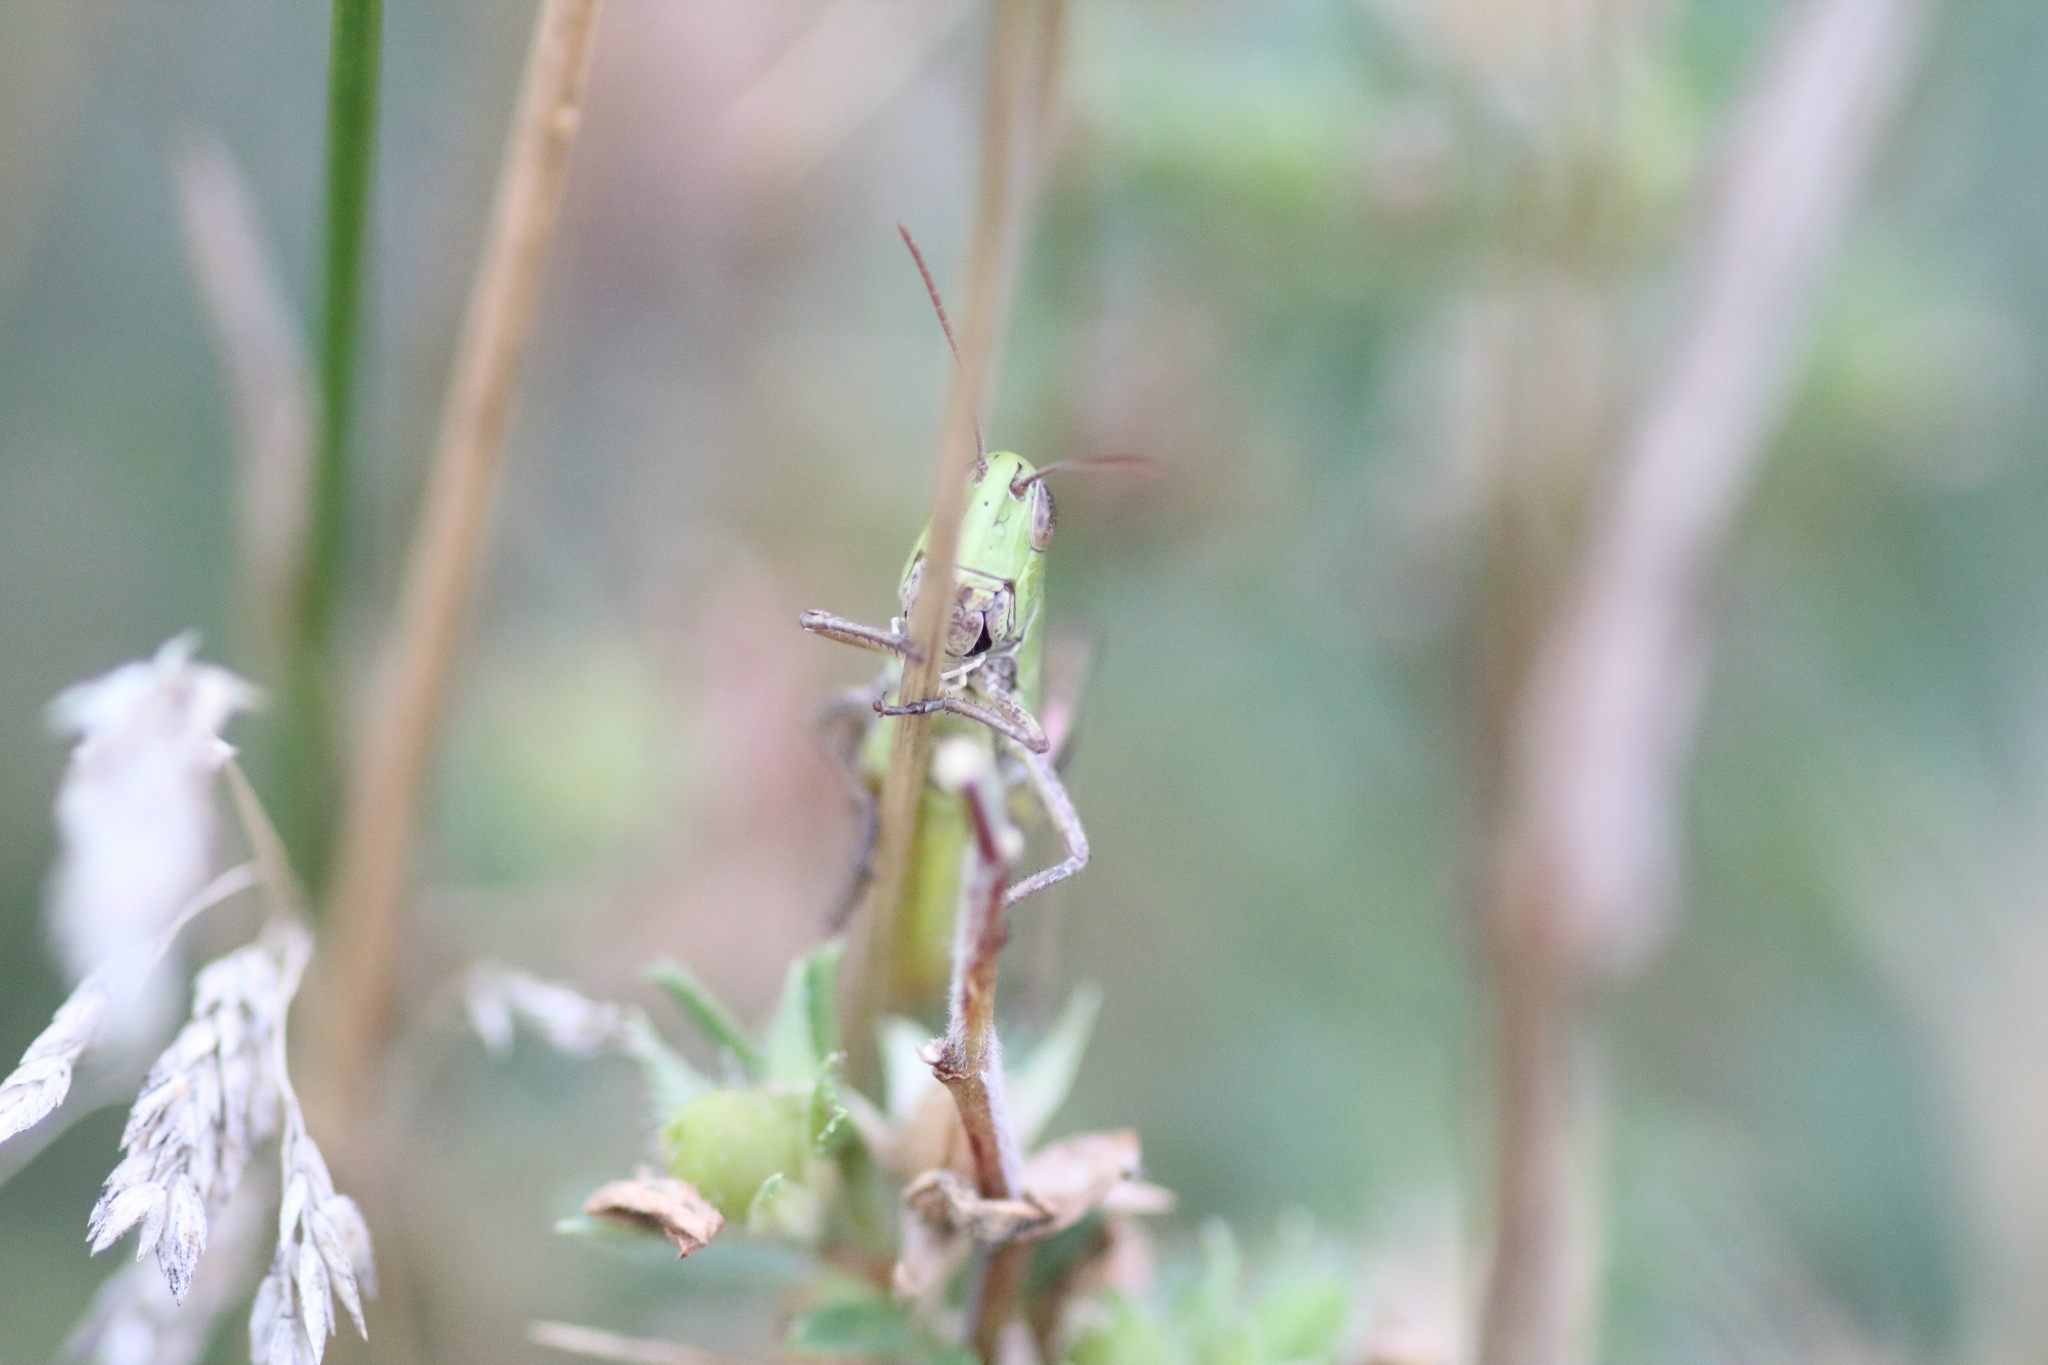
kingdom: Animalia
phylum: Arthropoda
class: Insecta
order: Orthoptera
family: Acrididae
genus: Pseudochorthippus
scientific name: Pseudochorthippus parallelus
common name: Meadow grasshopper
